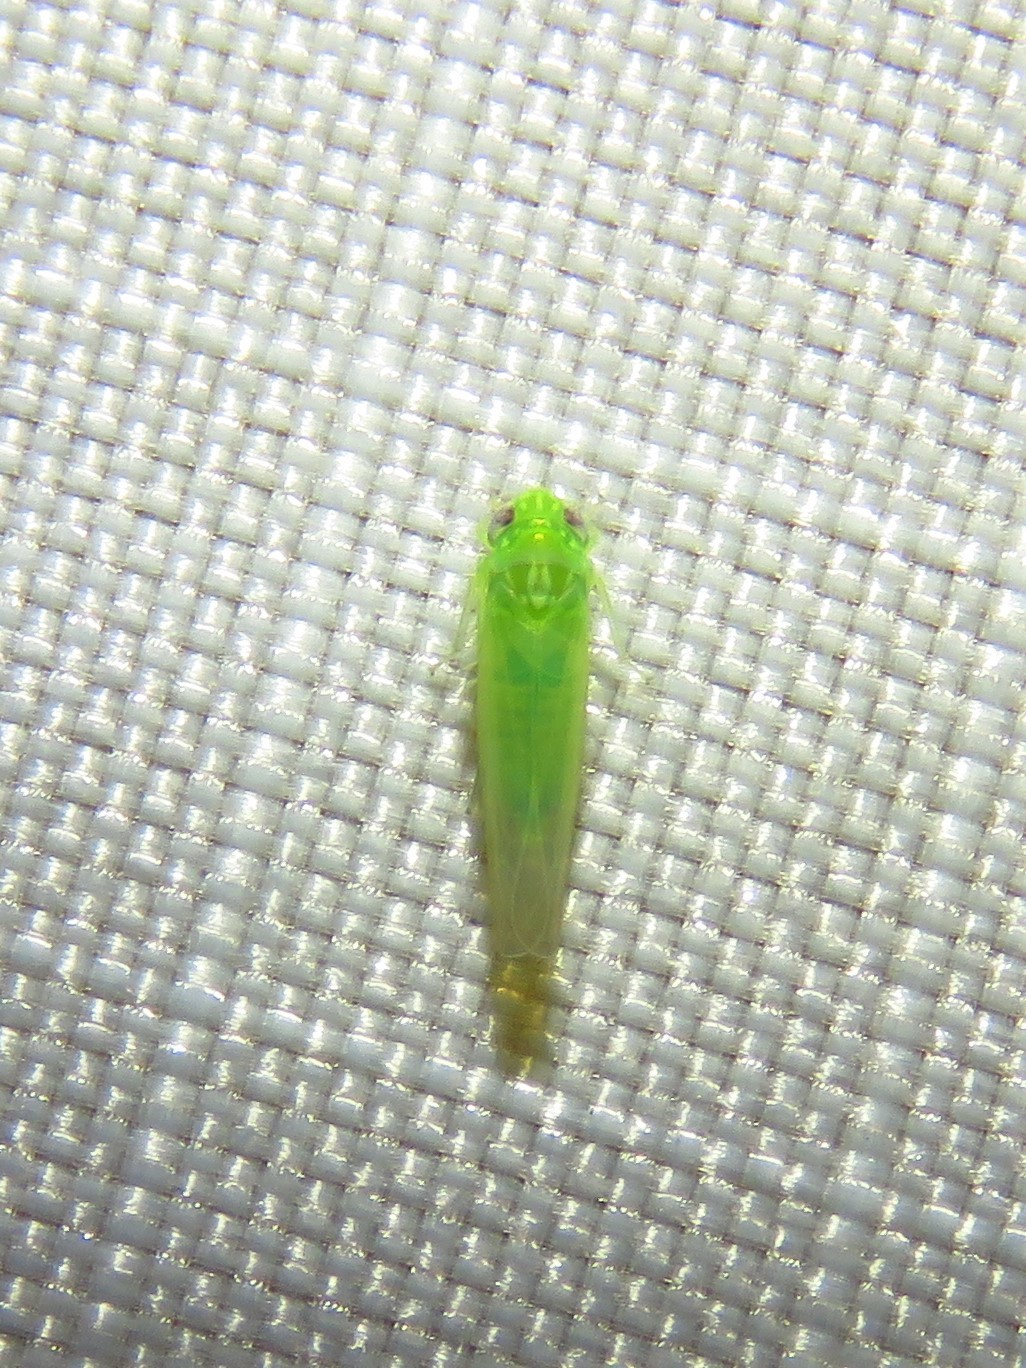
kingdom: Animalia
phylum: Arthropoda
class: Insecta
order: Hemiptera
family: Cicadellidae
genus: Empoasca
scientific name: Empoasca fabae
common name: Potato leafhopper
